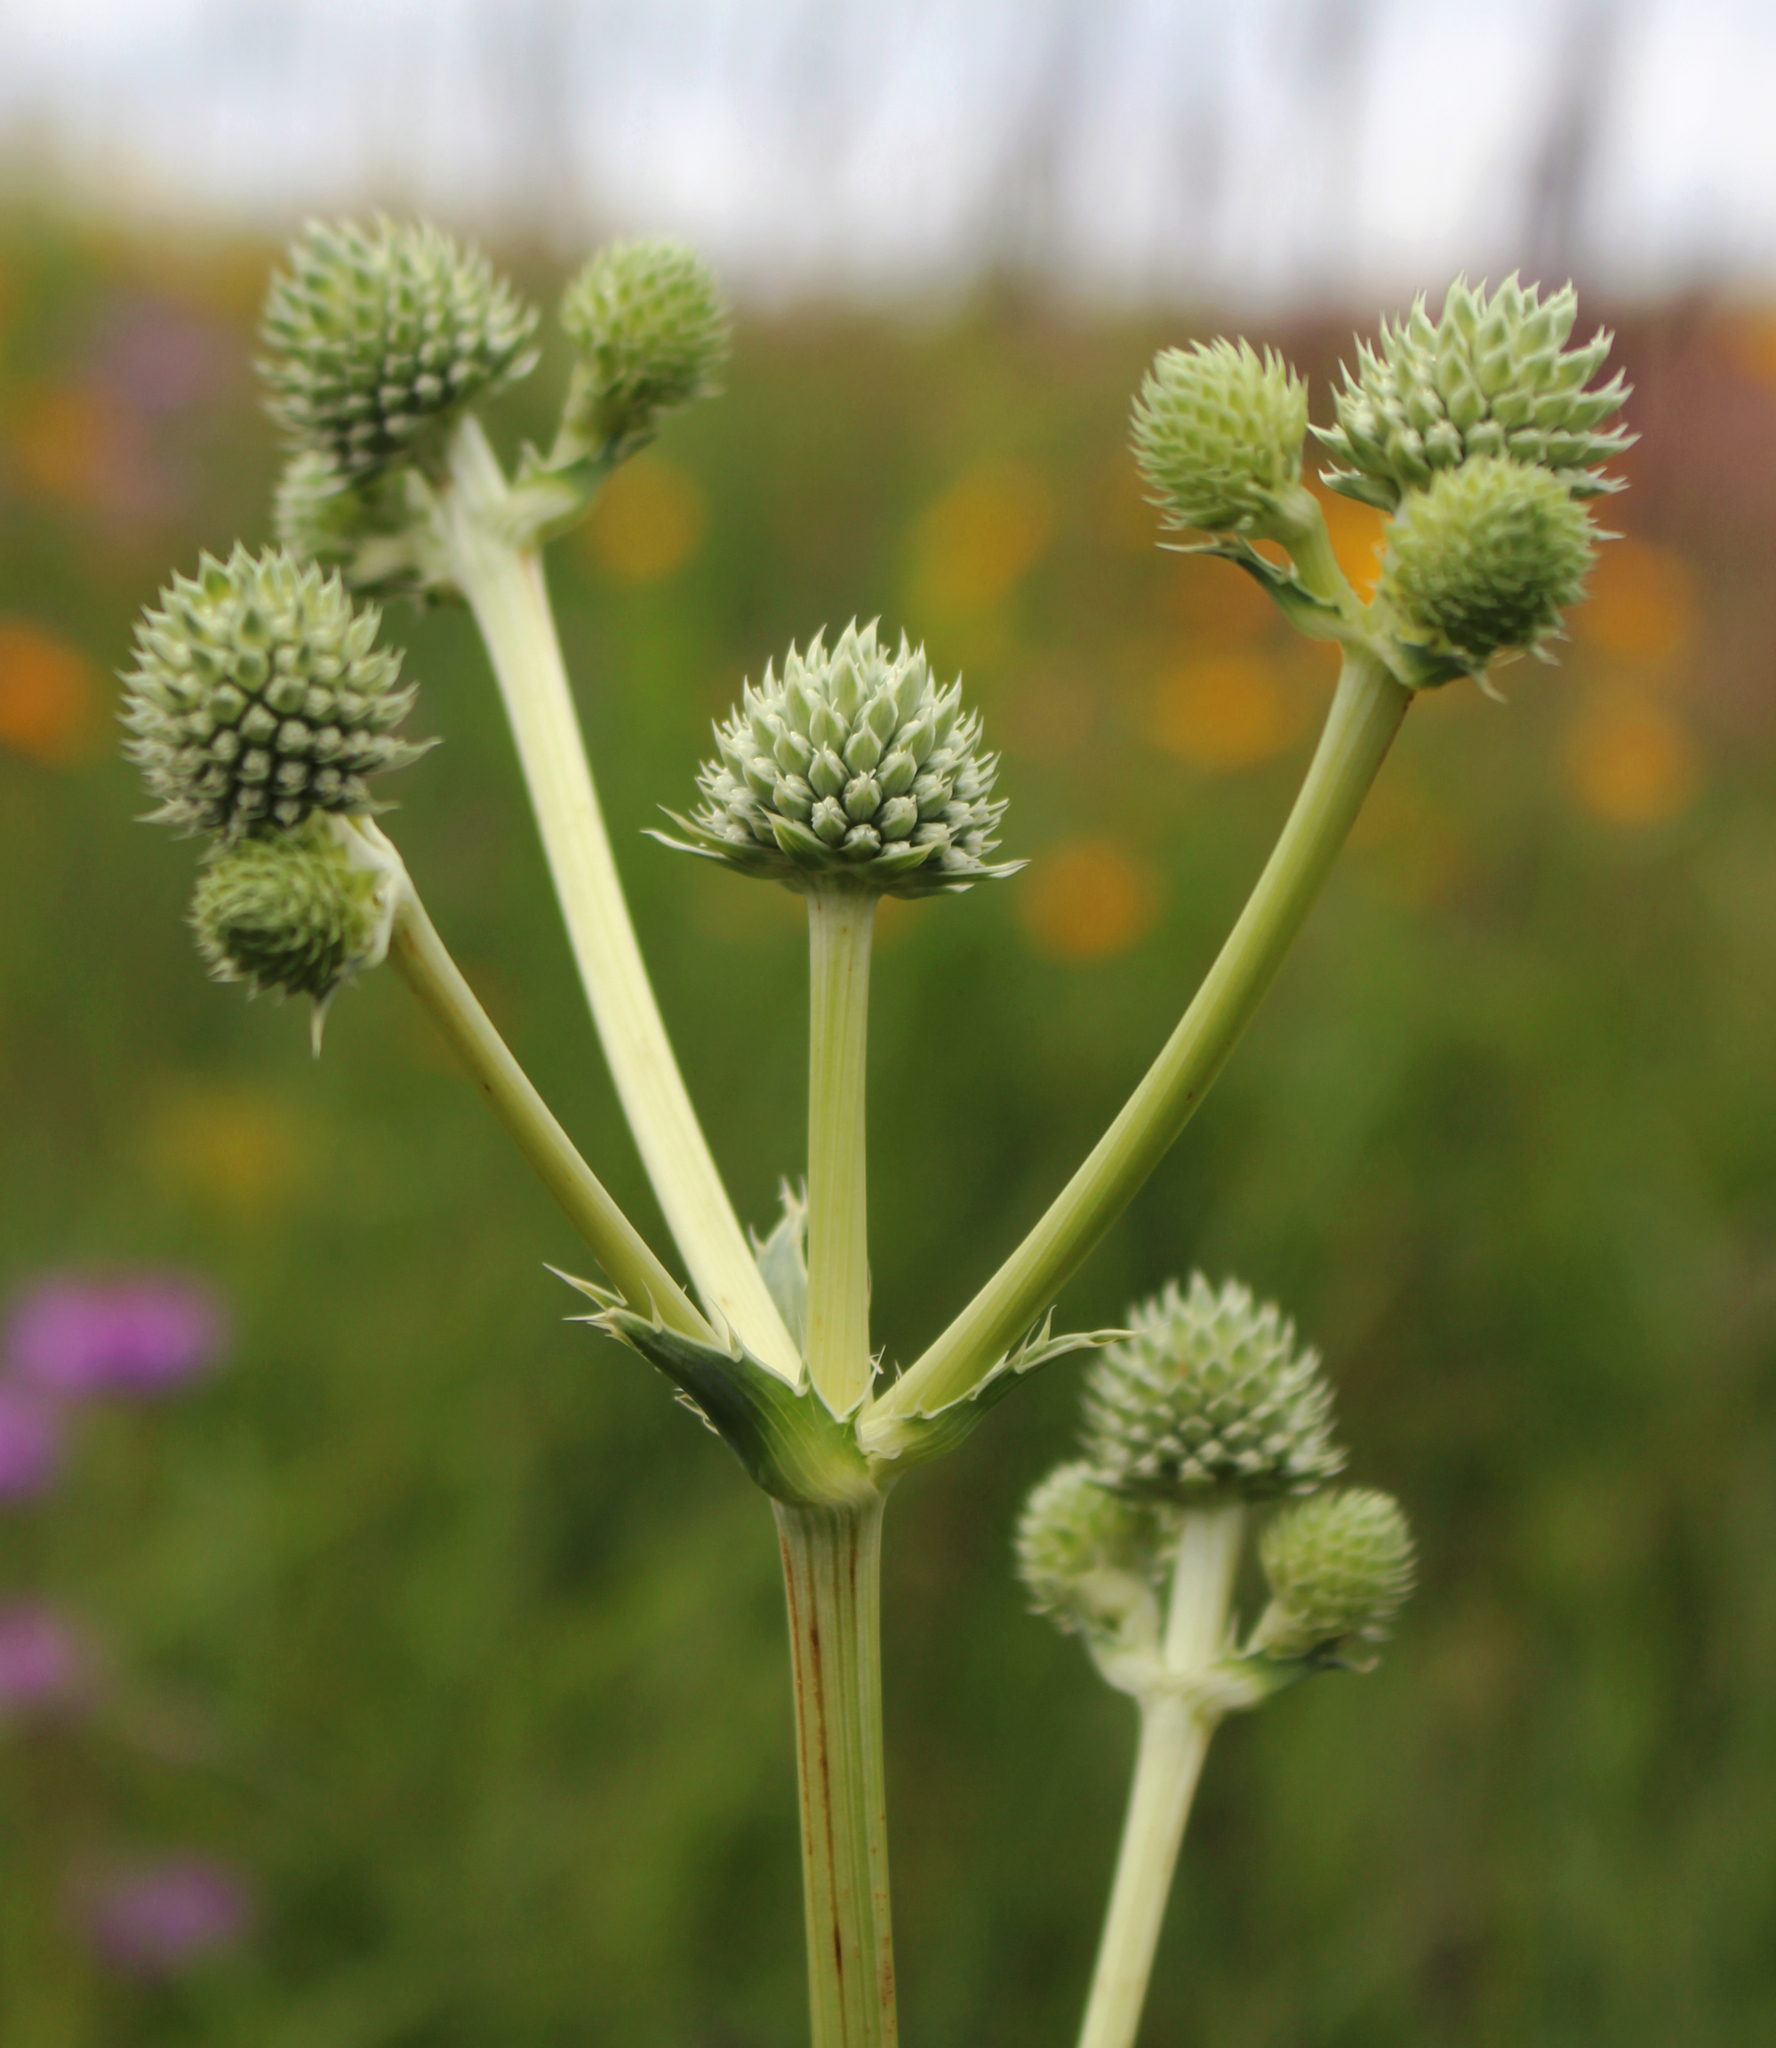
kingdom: Plantae
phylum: Tracheophyta
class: Magnoliopsida
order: Apiales
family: Apiaceae
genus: Eryngium
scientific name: Eryngium yuccifolium
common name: Button eryngo
